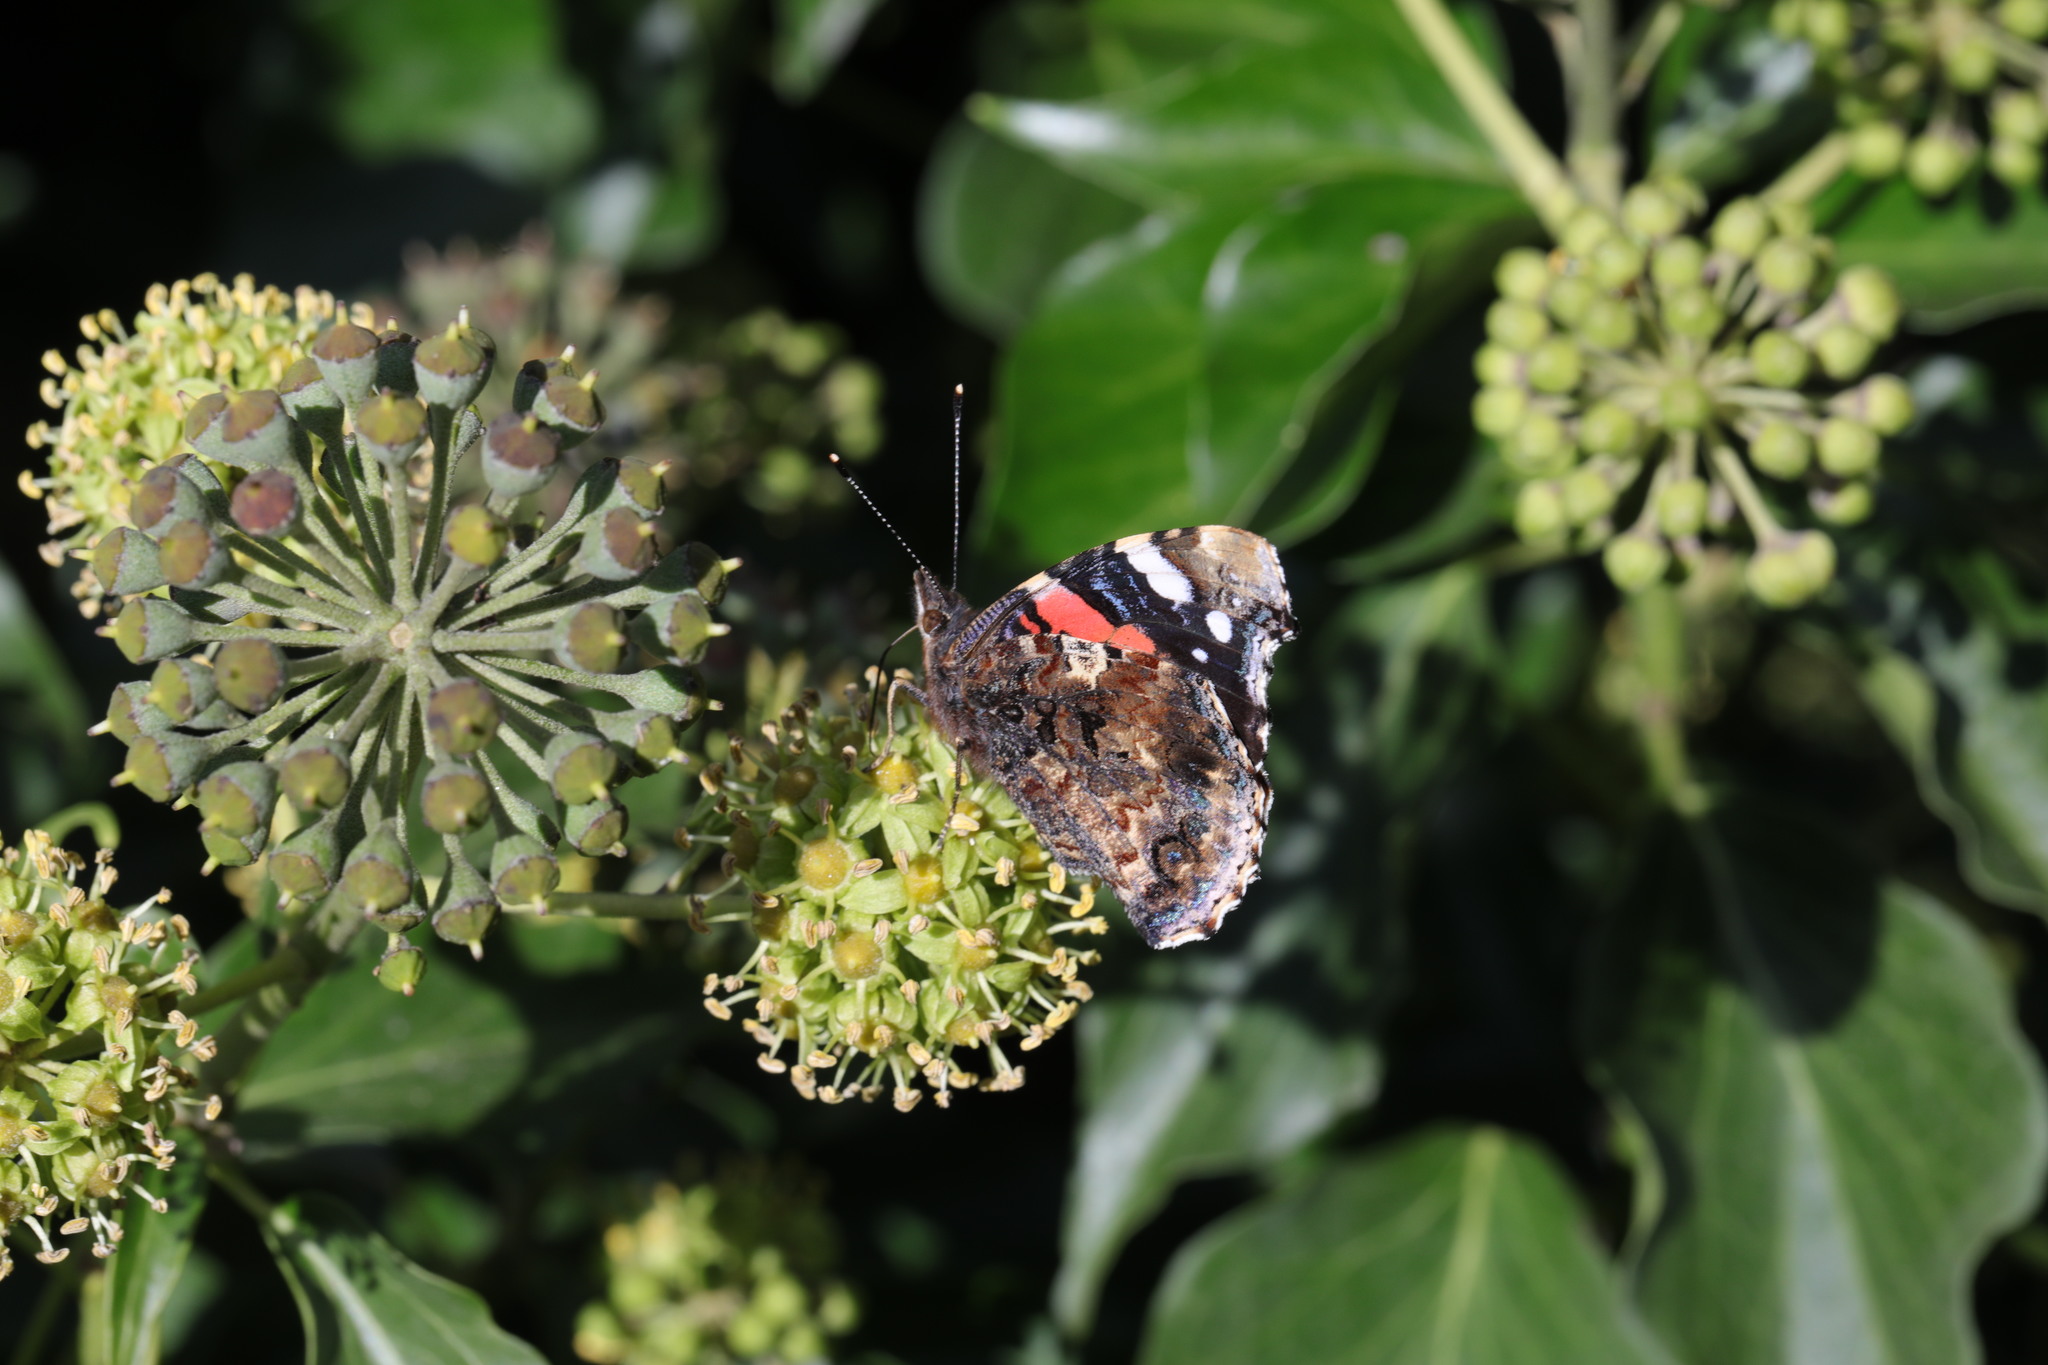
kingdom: Animalia
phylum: Arthropoda
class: Insecta
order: Lepidoptera
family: Nymphalidae
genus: Vanessa
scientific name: Vanessa atalanta
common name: Red admiral
